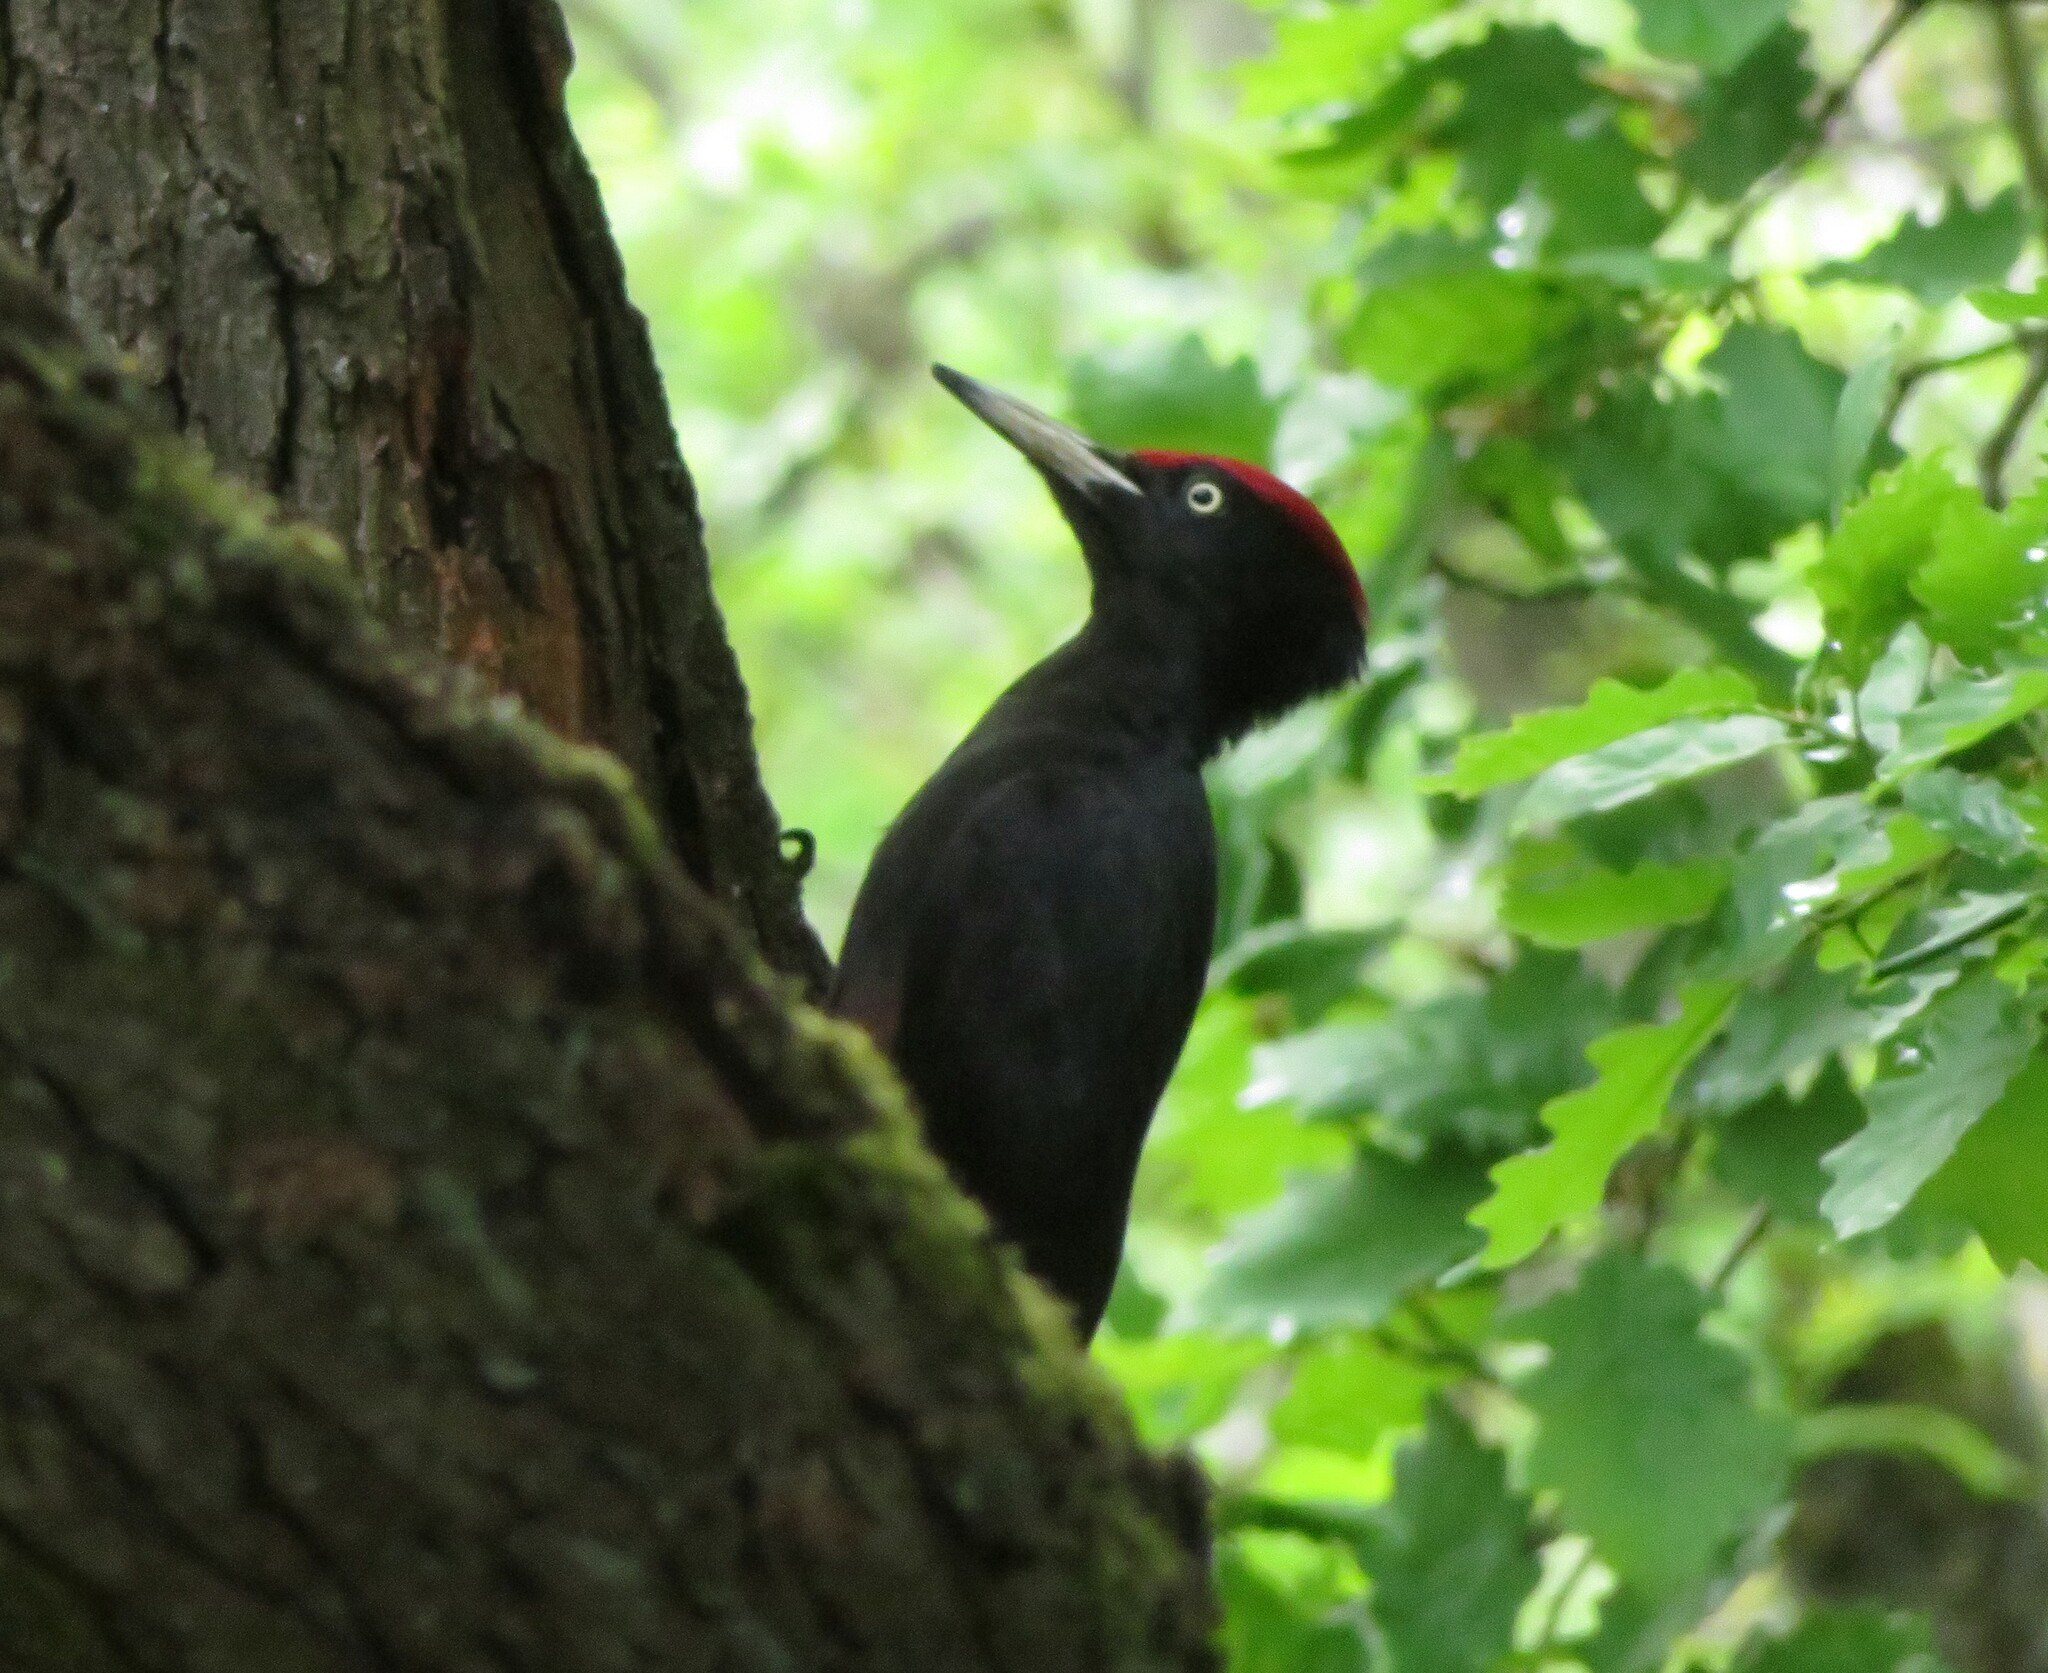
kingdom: Animalia
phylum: Chordata
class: Aves
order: Piciformes
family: Picidae
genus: Dryocopus
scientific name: Dryocopus martius
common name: Black woodpecker
